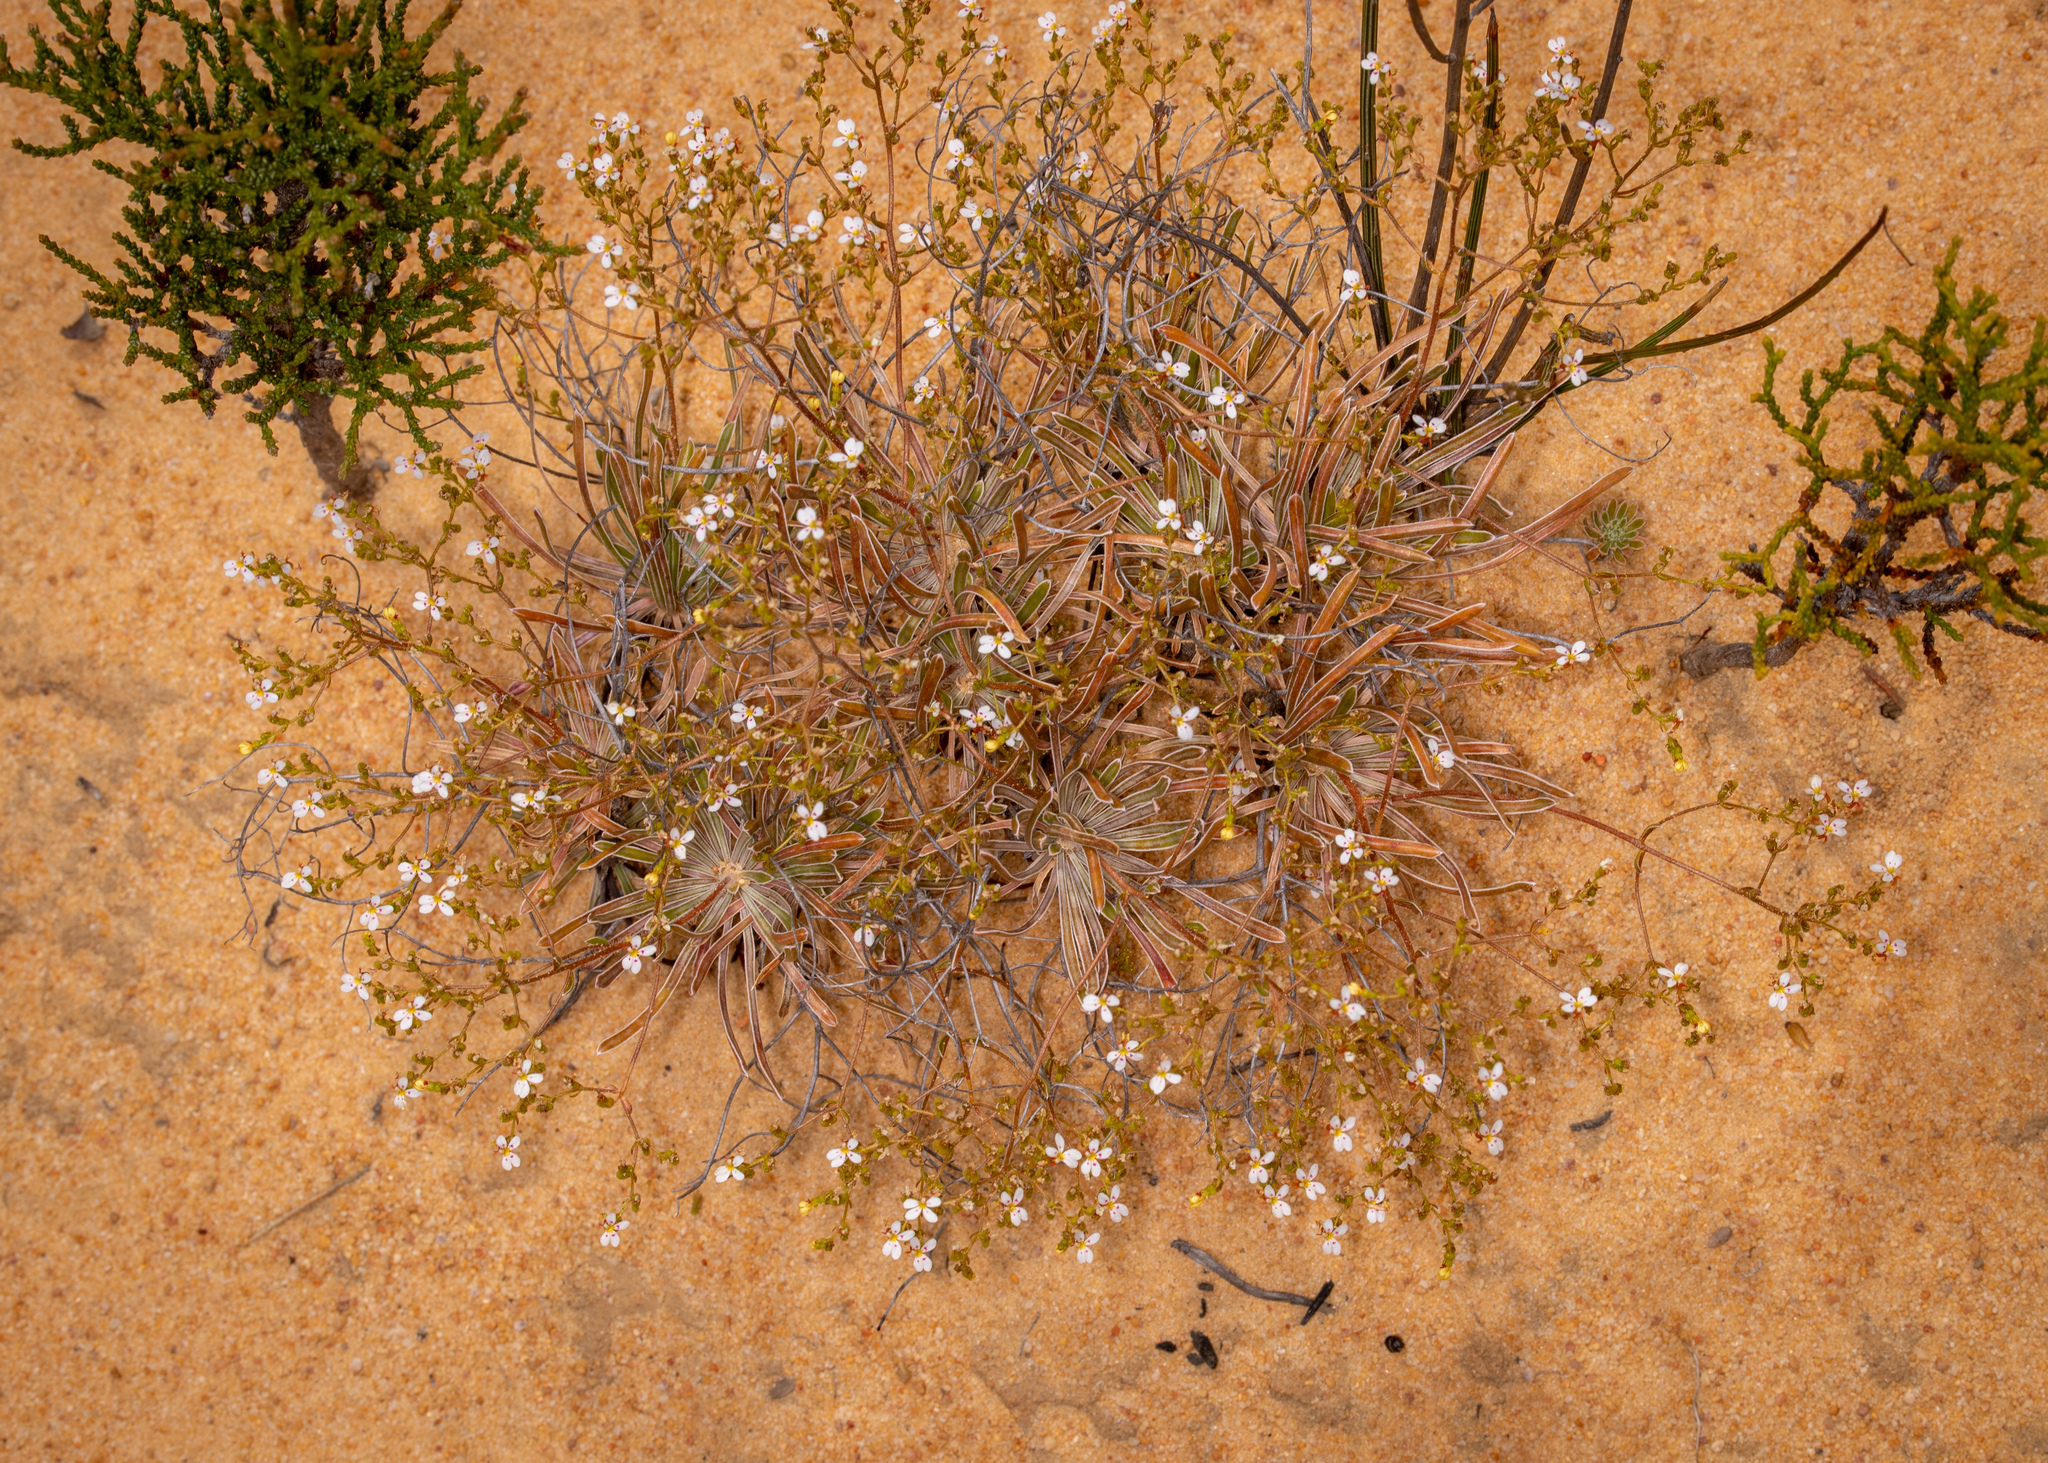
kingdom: Plantae
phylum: Tracheophyta
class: Magnoliopsida
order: Asterales
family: Stylidiaceae
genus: Stylidium
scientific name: Stylidium dispermum
